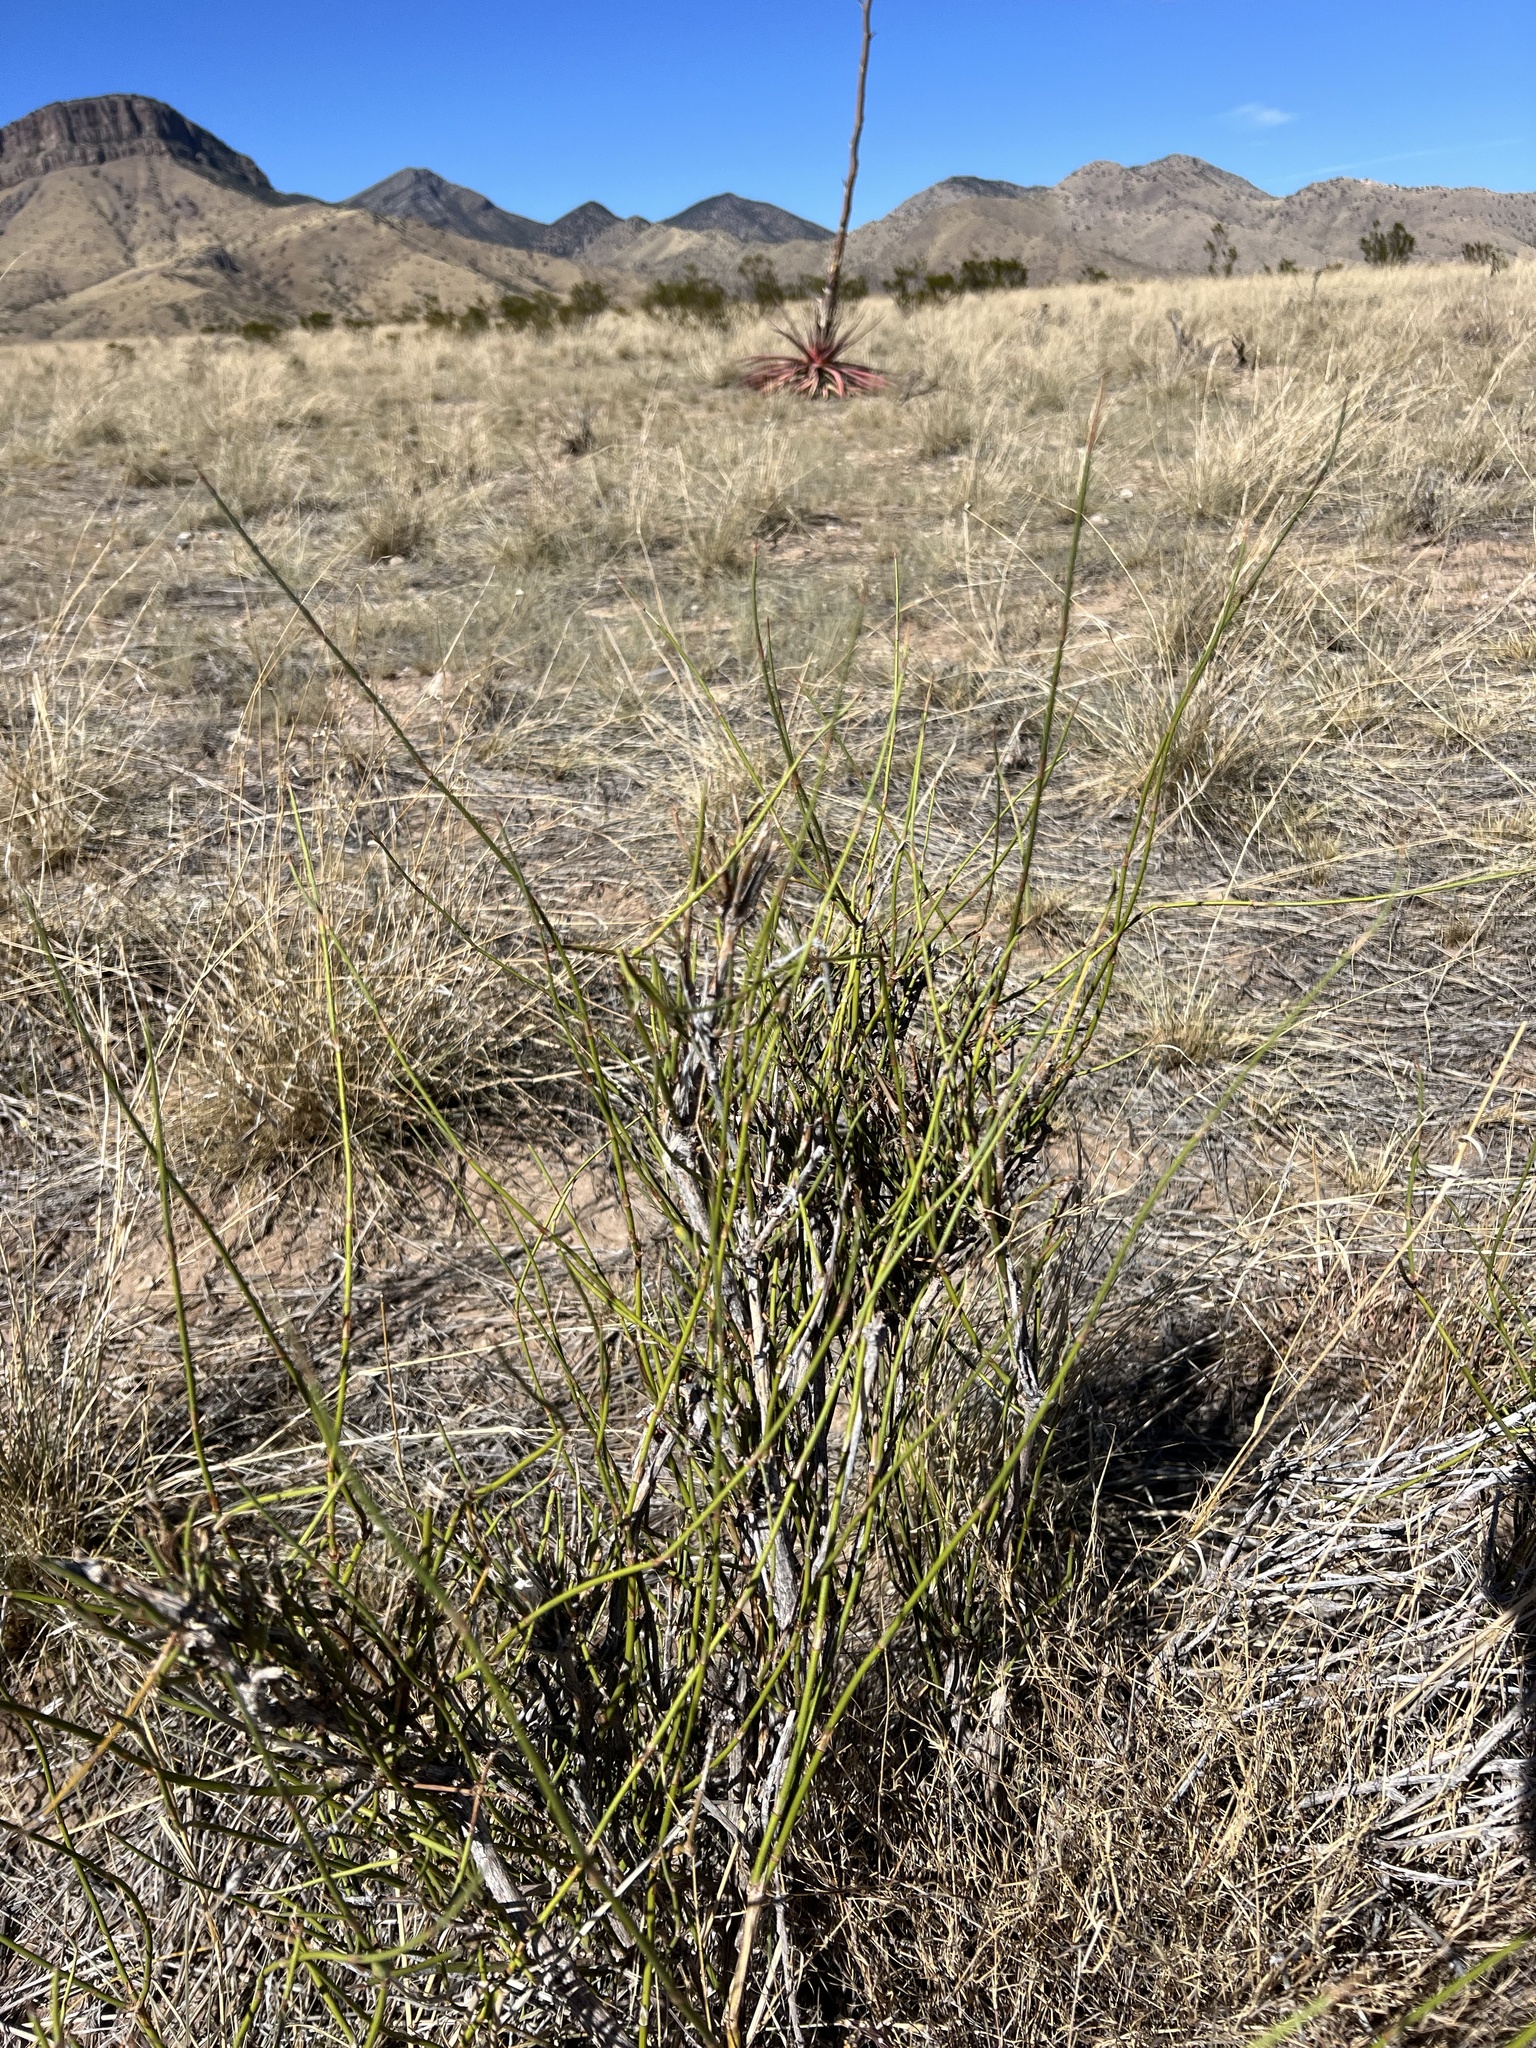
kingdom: Plantae
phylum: Tracheophyta
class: Gnetopsida
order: Ephedrales
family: Ephedraceae
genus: Ephedra
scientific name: Ephedra trifurca
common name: Mexican-tea
